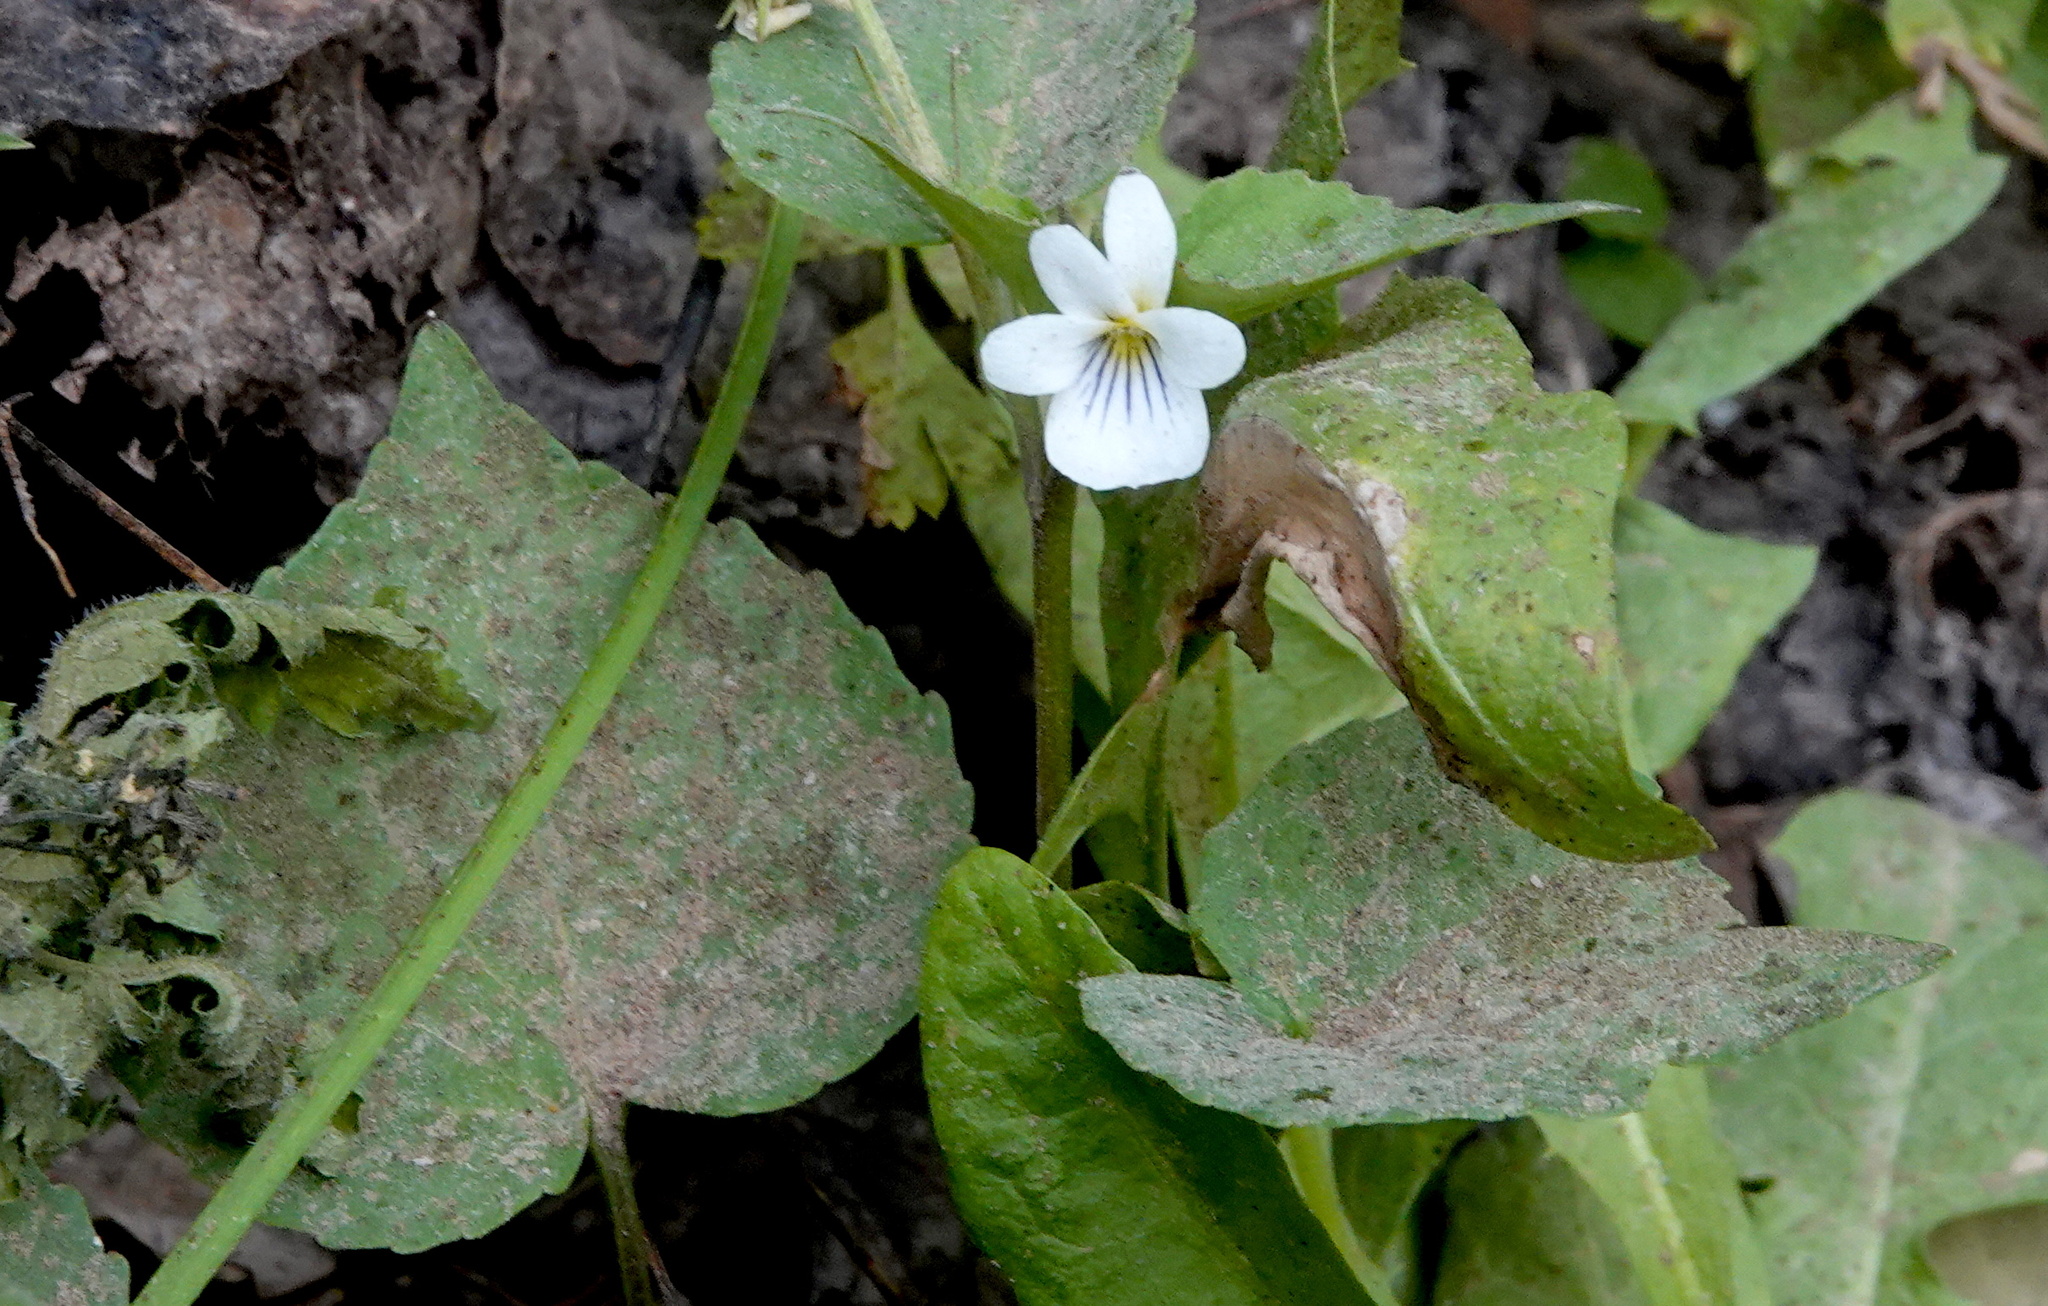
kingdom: Plantae
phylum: Tracheophyta
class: Magnoliopsida
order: Malpighiales
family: Violaceae
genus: Viola
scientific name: Viola canadensis
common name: Canada violet
